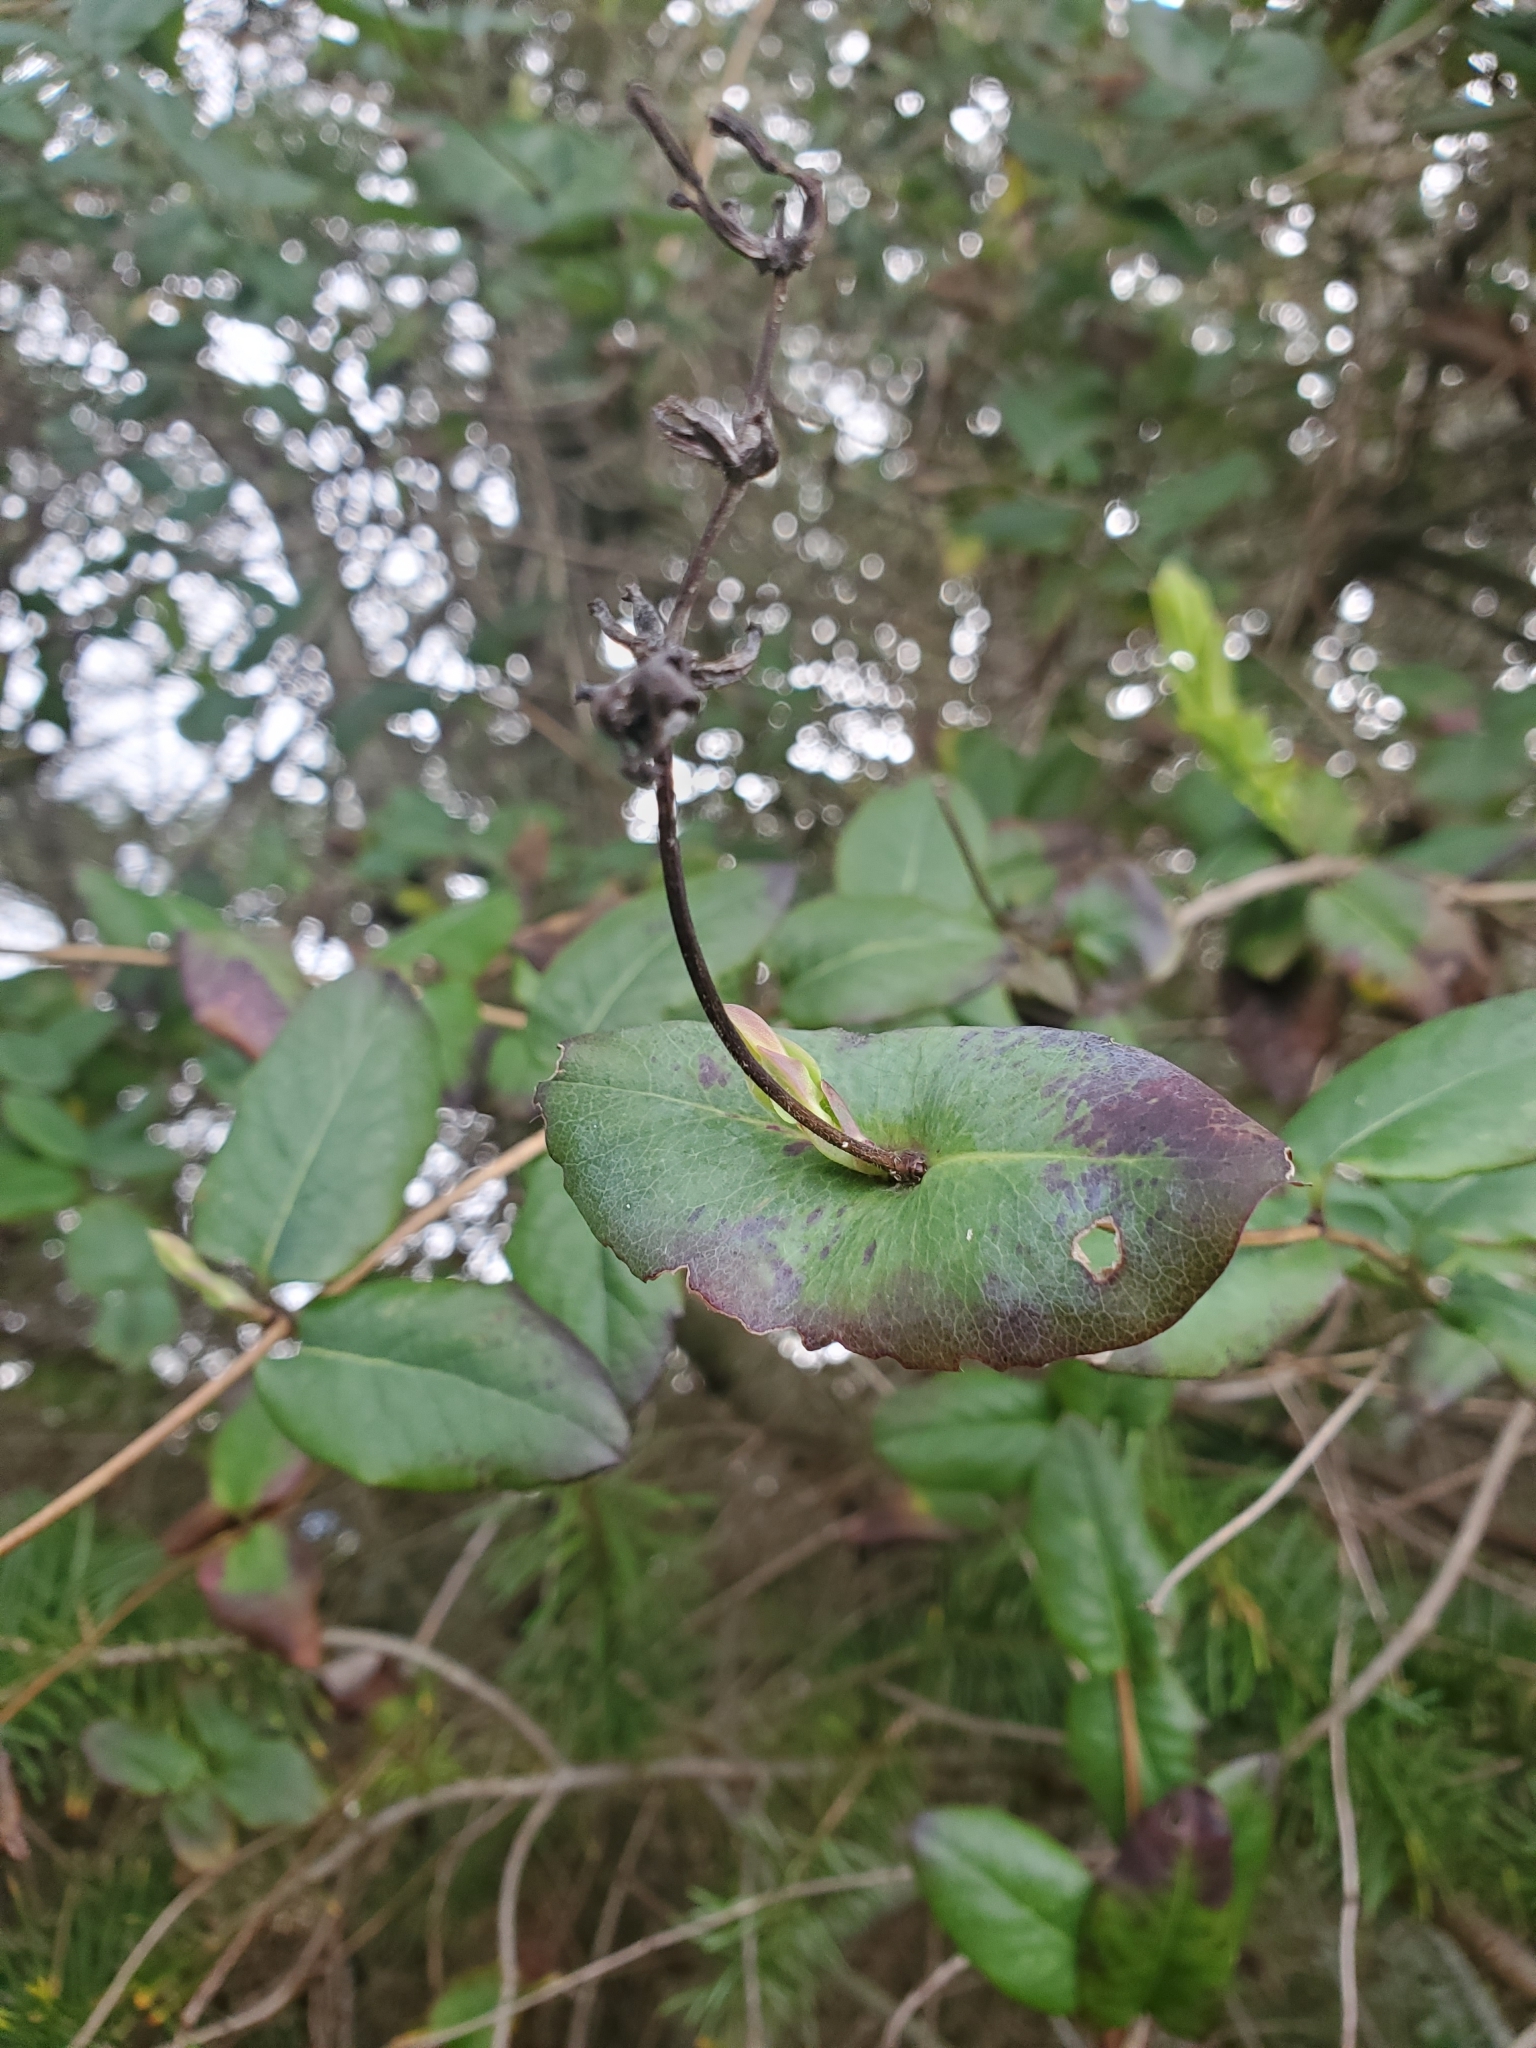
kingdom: Plantae
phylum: Tracheophyta
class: Magnoliopsida
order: Dipsacales
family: Caprifoliaceae
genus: Lonicera
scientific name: Lonicera hispidula
